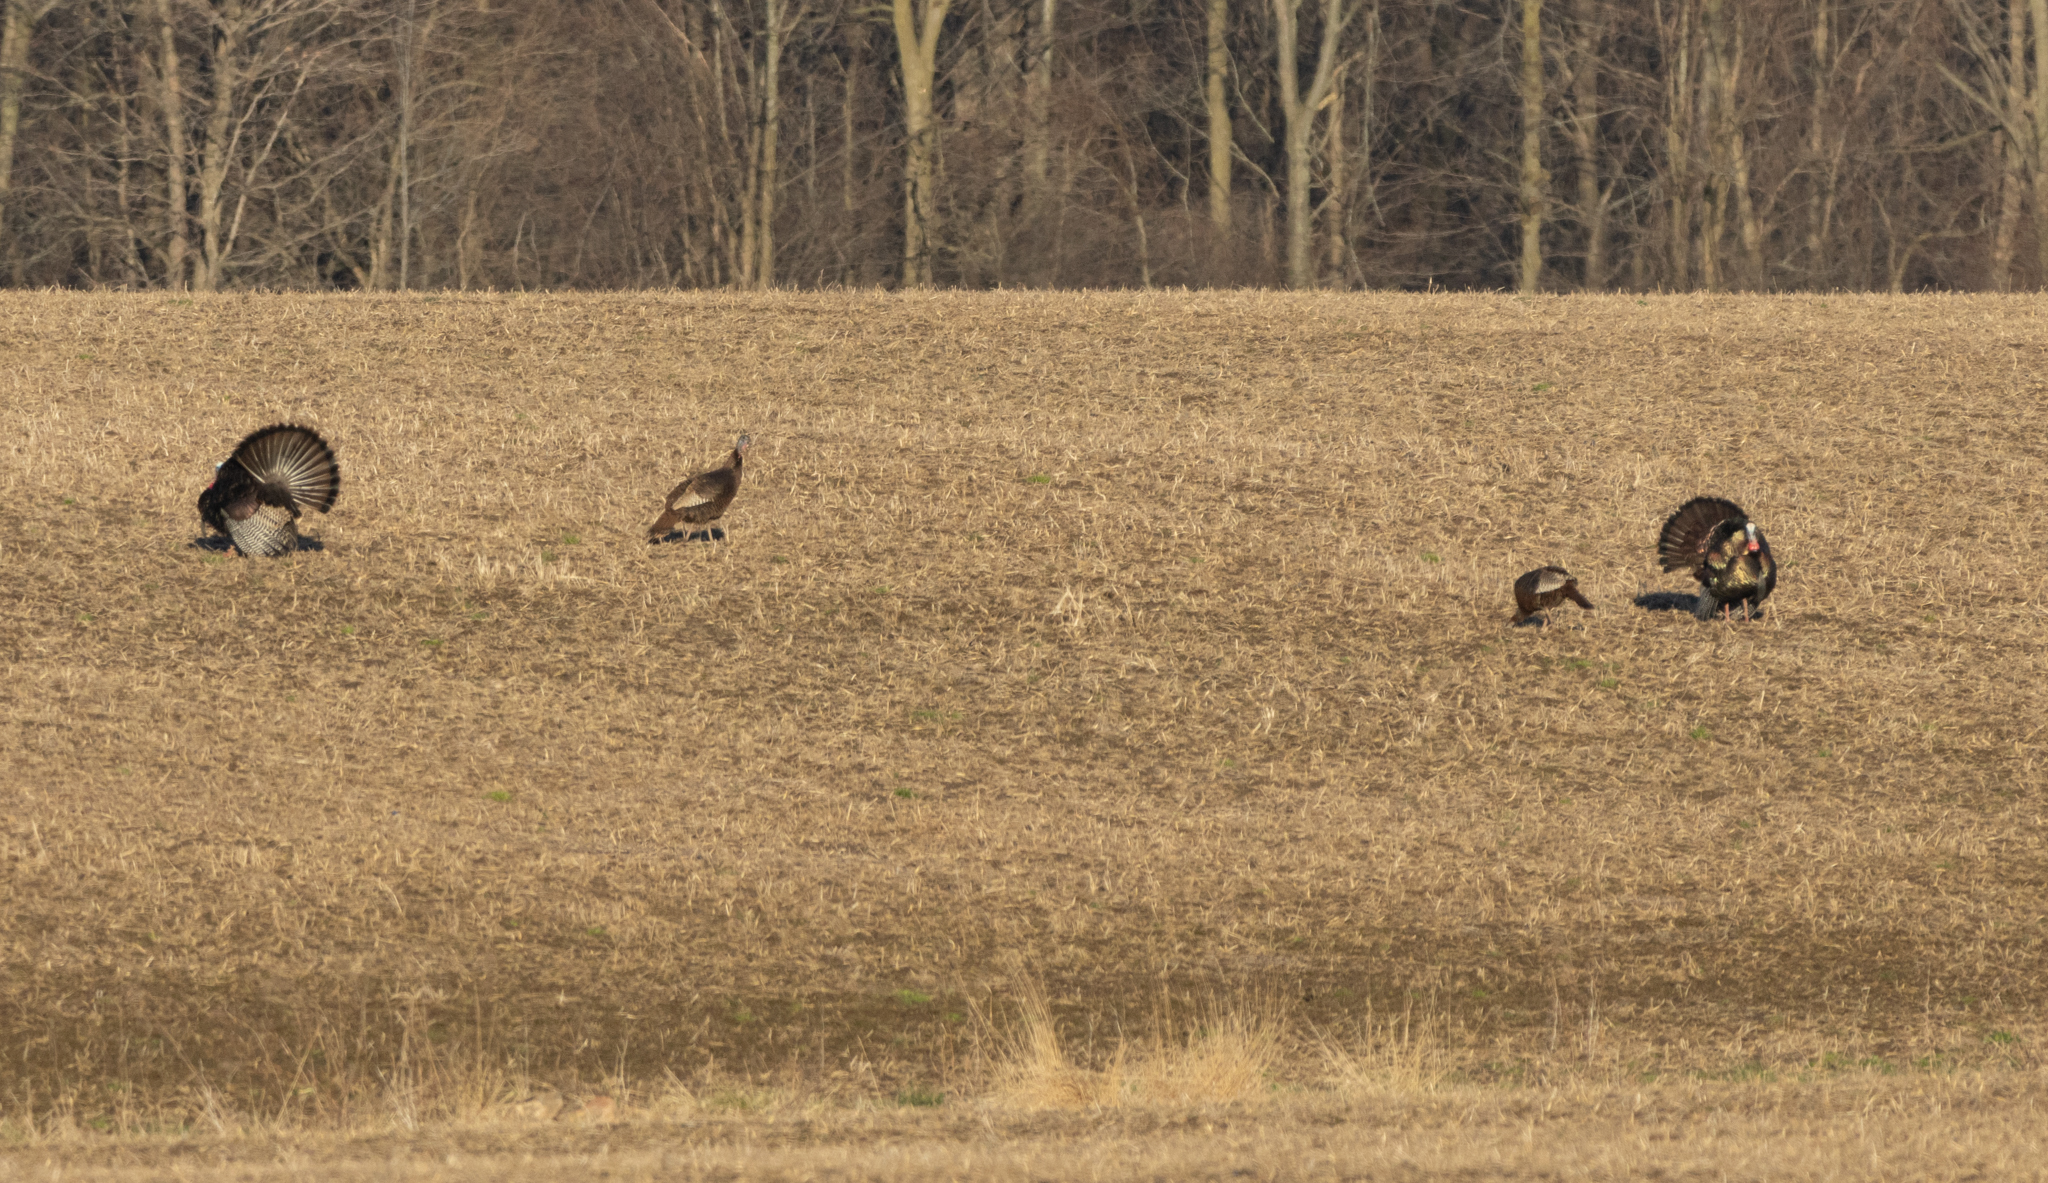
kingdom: Animalia
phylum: Chordata
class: Aves
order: Galliformes
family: Phasianidae
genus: Meleagris
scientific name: Meleagris gallopavo
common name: Wild turkey
